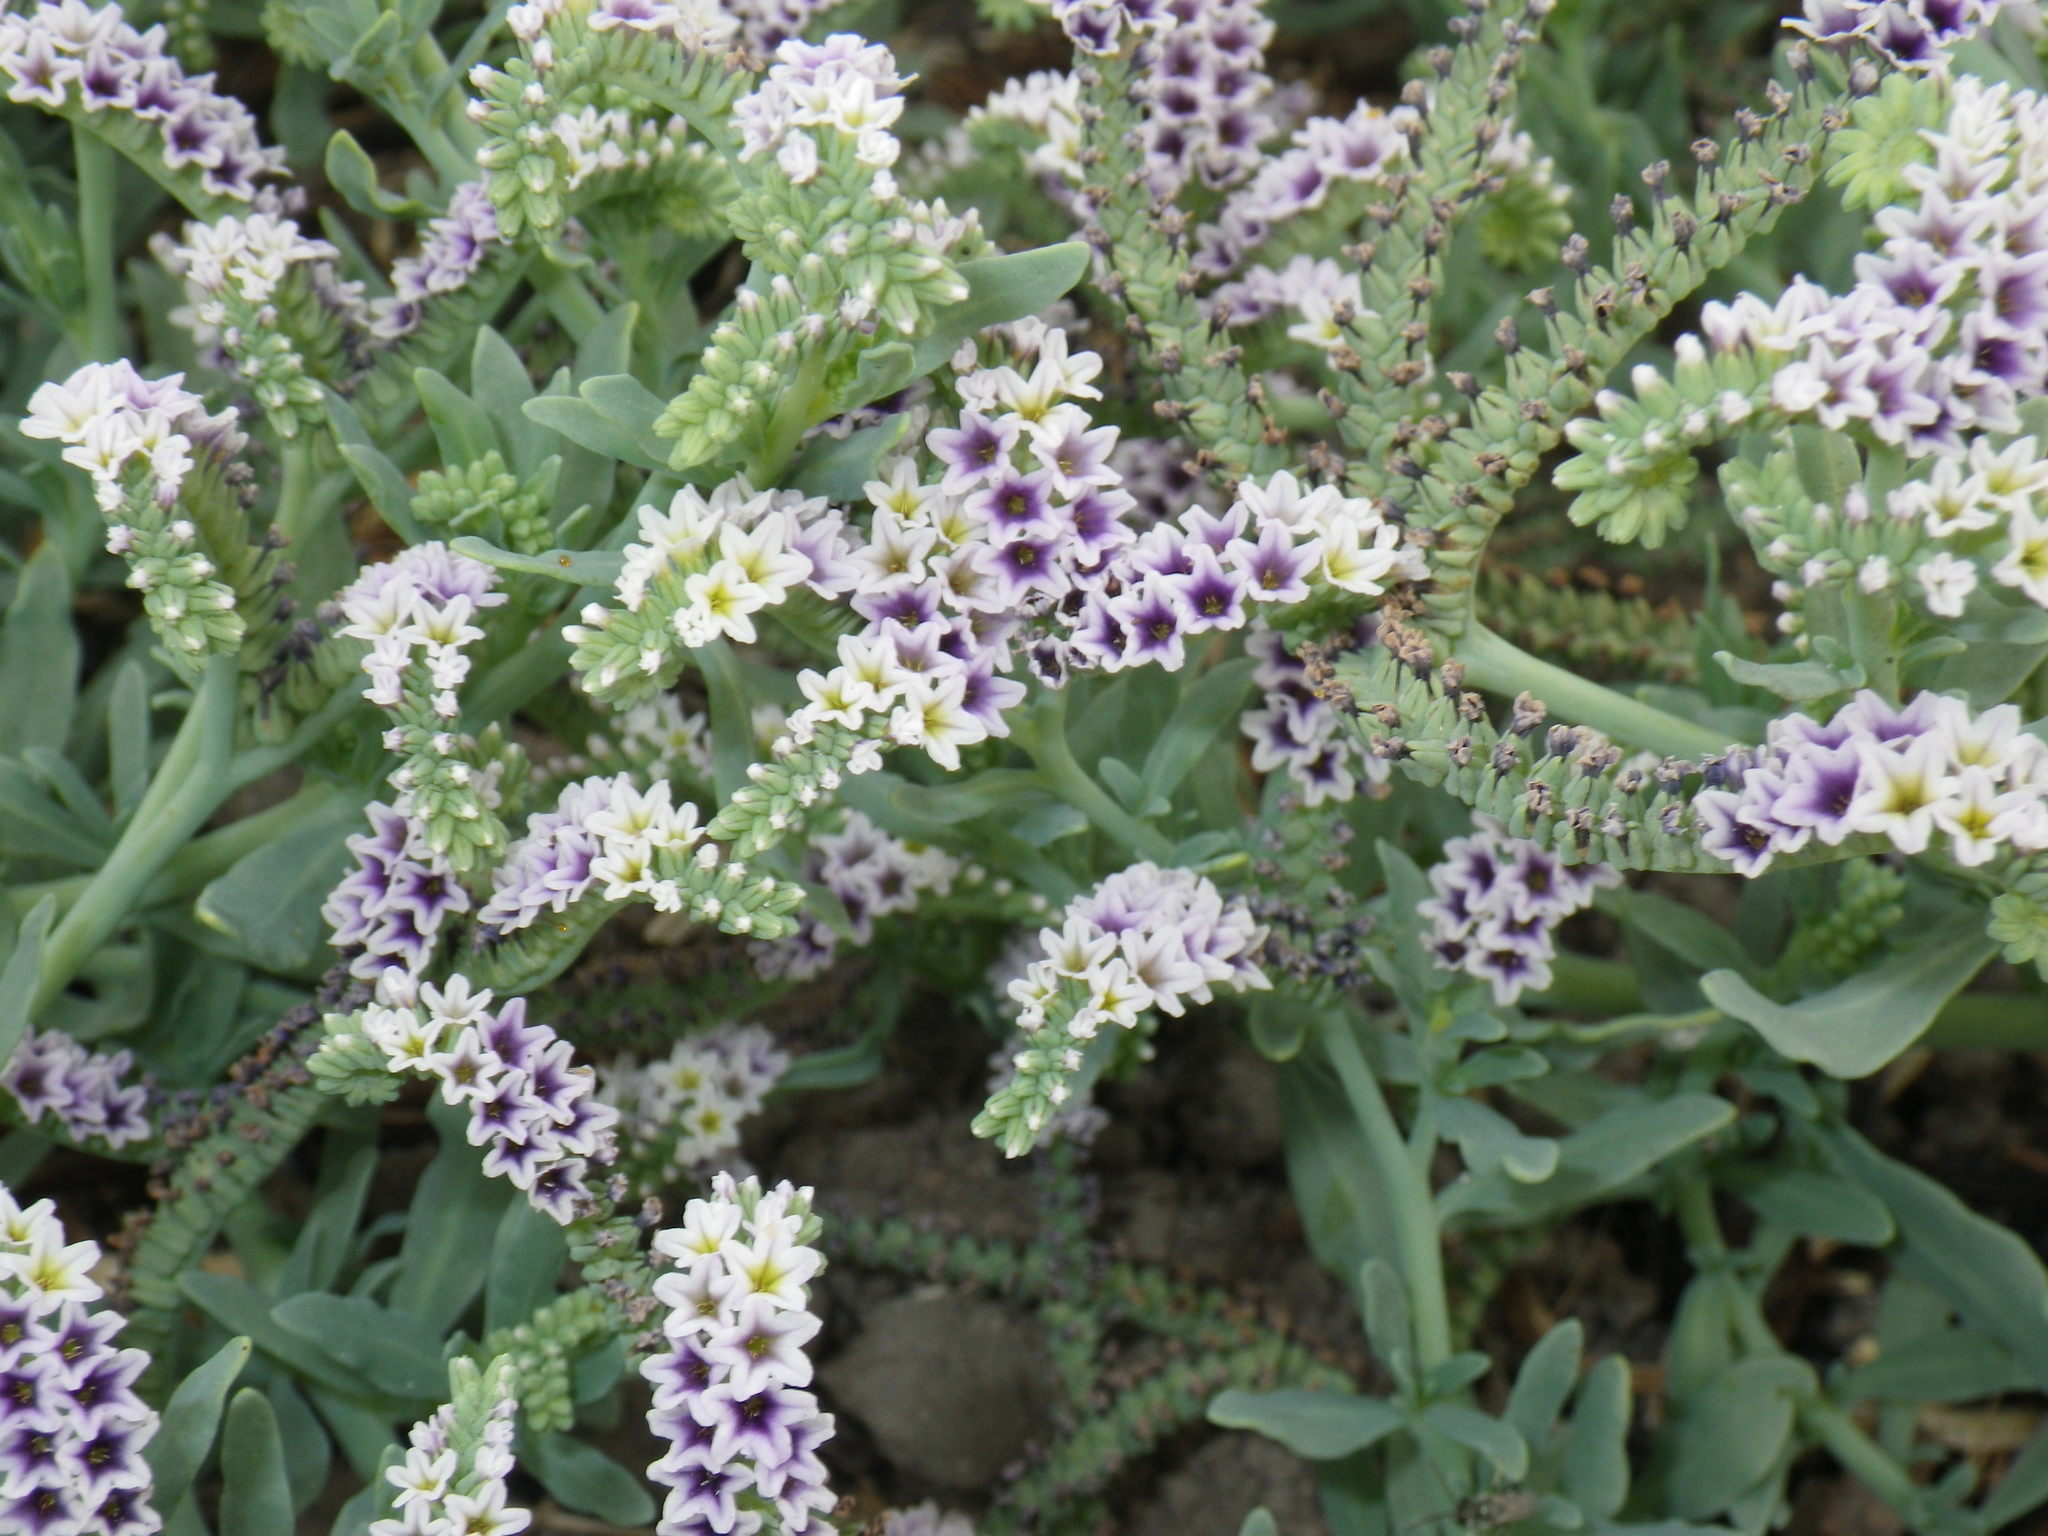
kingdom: Plantae
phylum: Tracheophyta
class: Magnoliopsida
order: Boraginales
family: Heliotropiaceae
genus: Heliotropium
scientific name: Heliotropium curassavicum
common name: Seaside heliotrope
